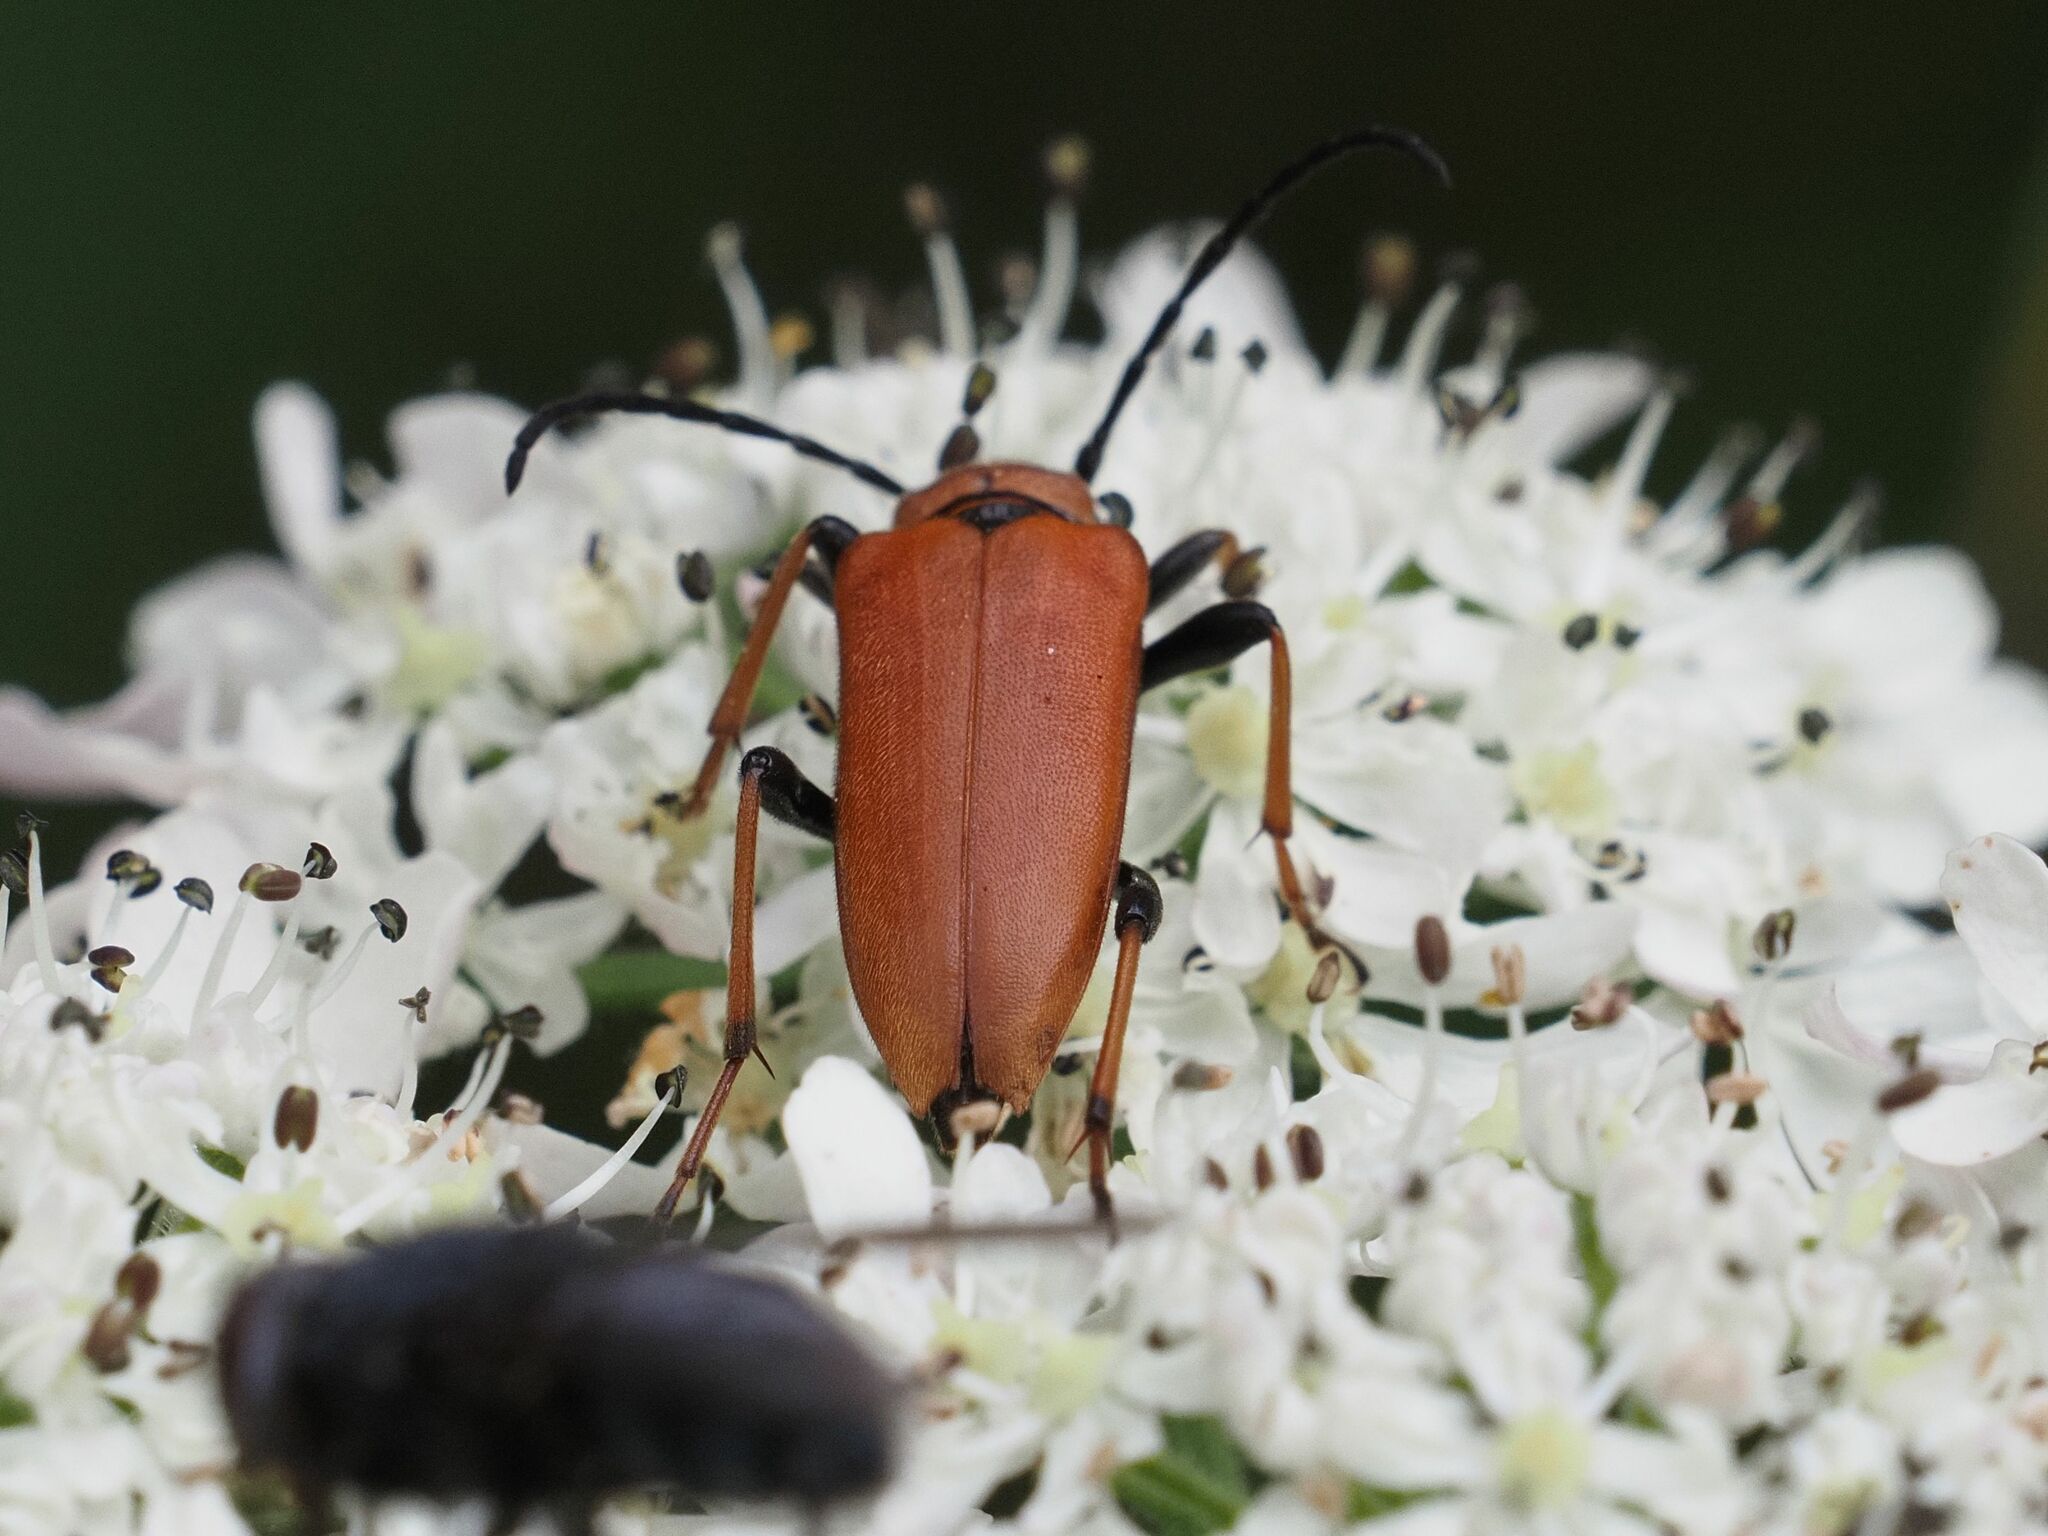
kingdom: Animalia
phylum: Arthropoda
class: Insecta
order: Coleoptera
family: Cerambycidae
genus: Stictoleptura
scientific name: Stictoleptura rubra
